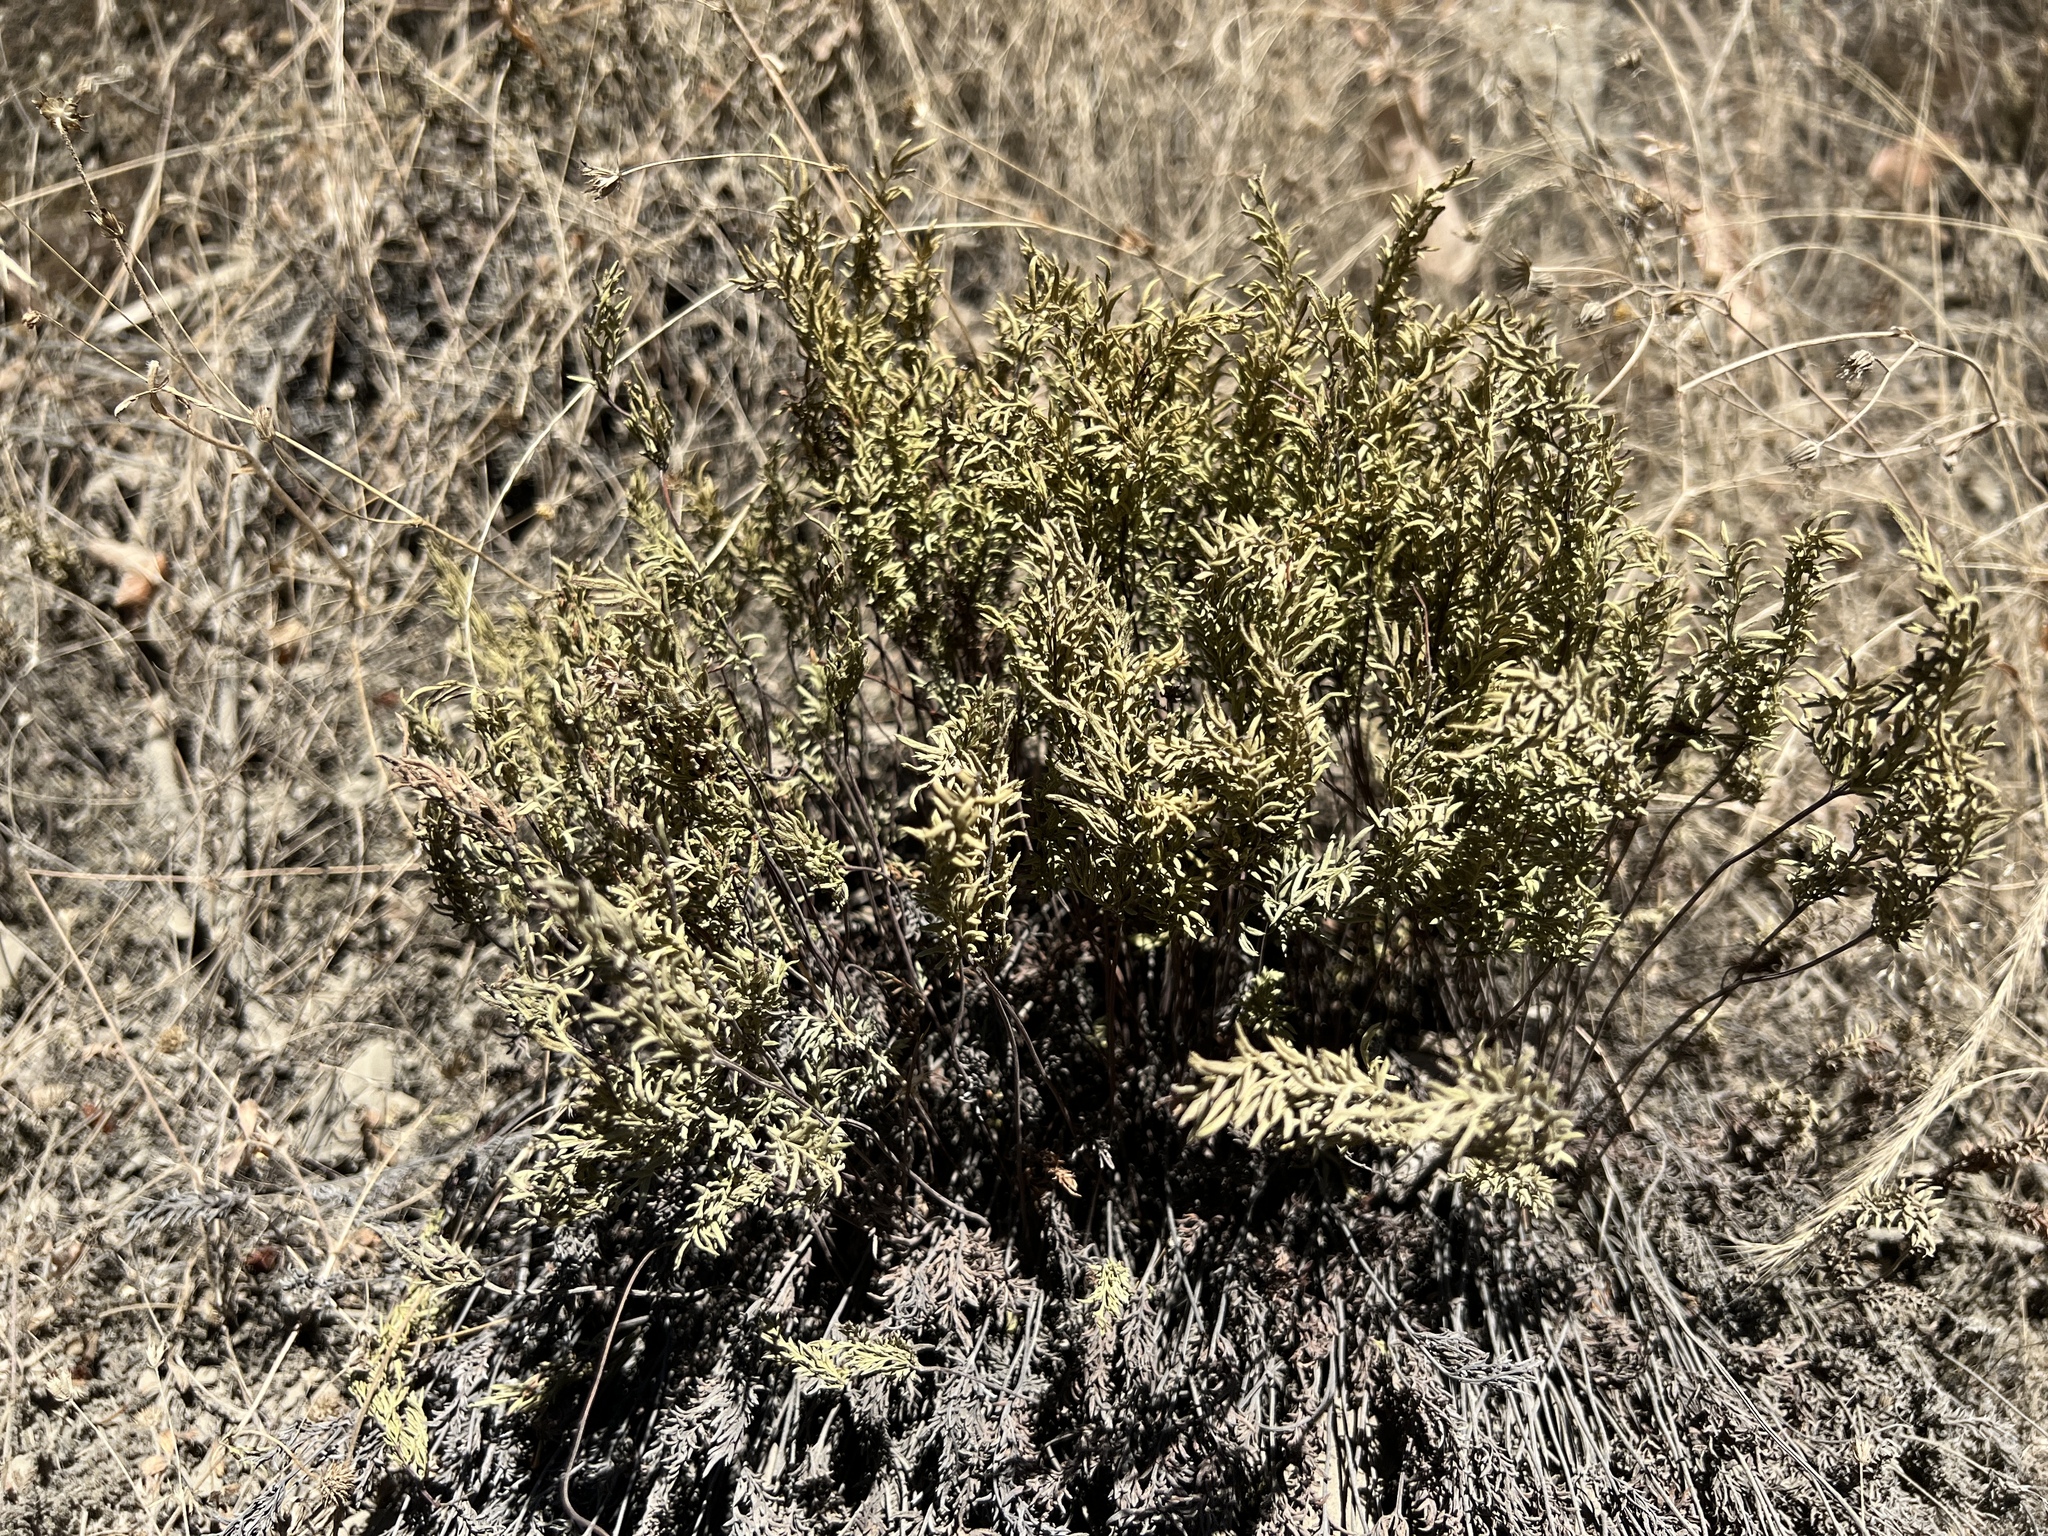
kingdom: Plantae
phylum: Tracheophyta
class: Polypodiopsida
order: Polypodiales
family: Pteridaceae
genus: Aspidotis
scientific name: Aspidotis densa
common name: Indian's dream
